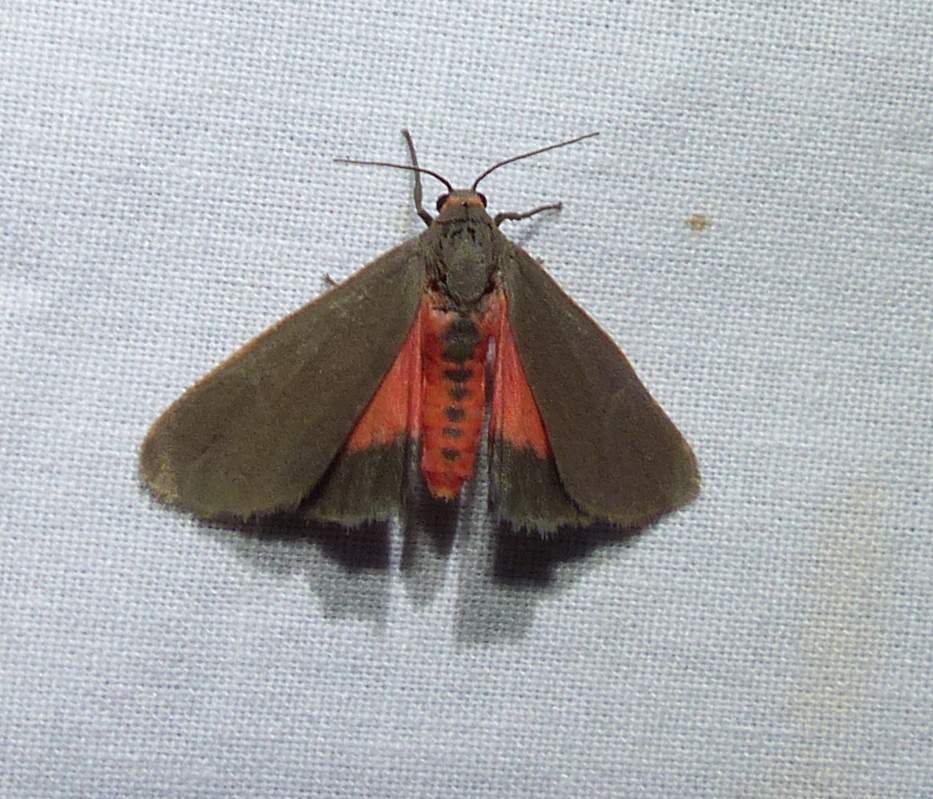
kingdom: Animalia
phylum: Arthropoda
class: Insecta
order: Lepidoptera
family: Erebidae
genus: Virbia
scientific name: Virbia laeta
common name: Joyful holomelina moth
